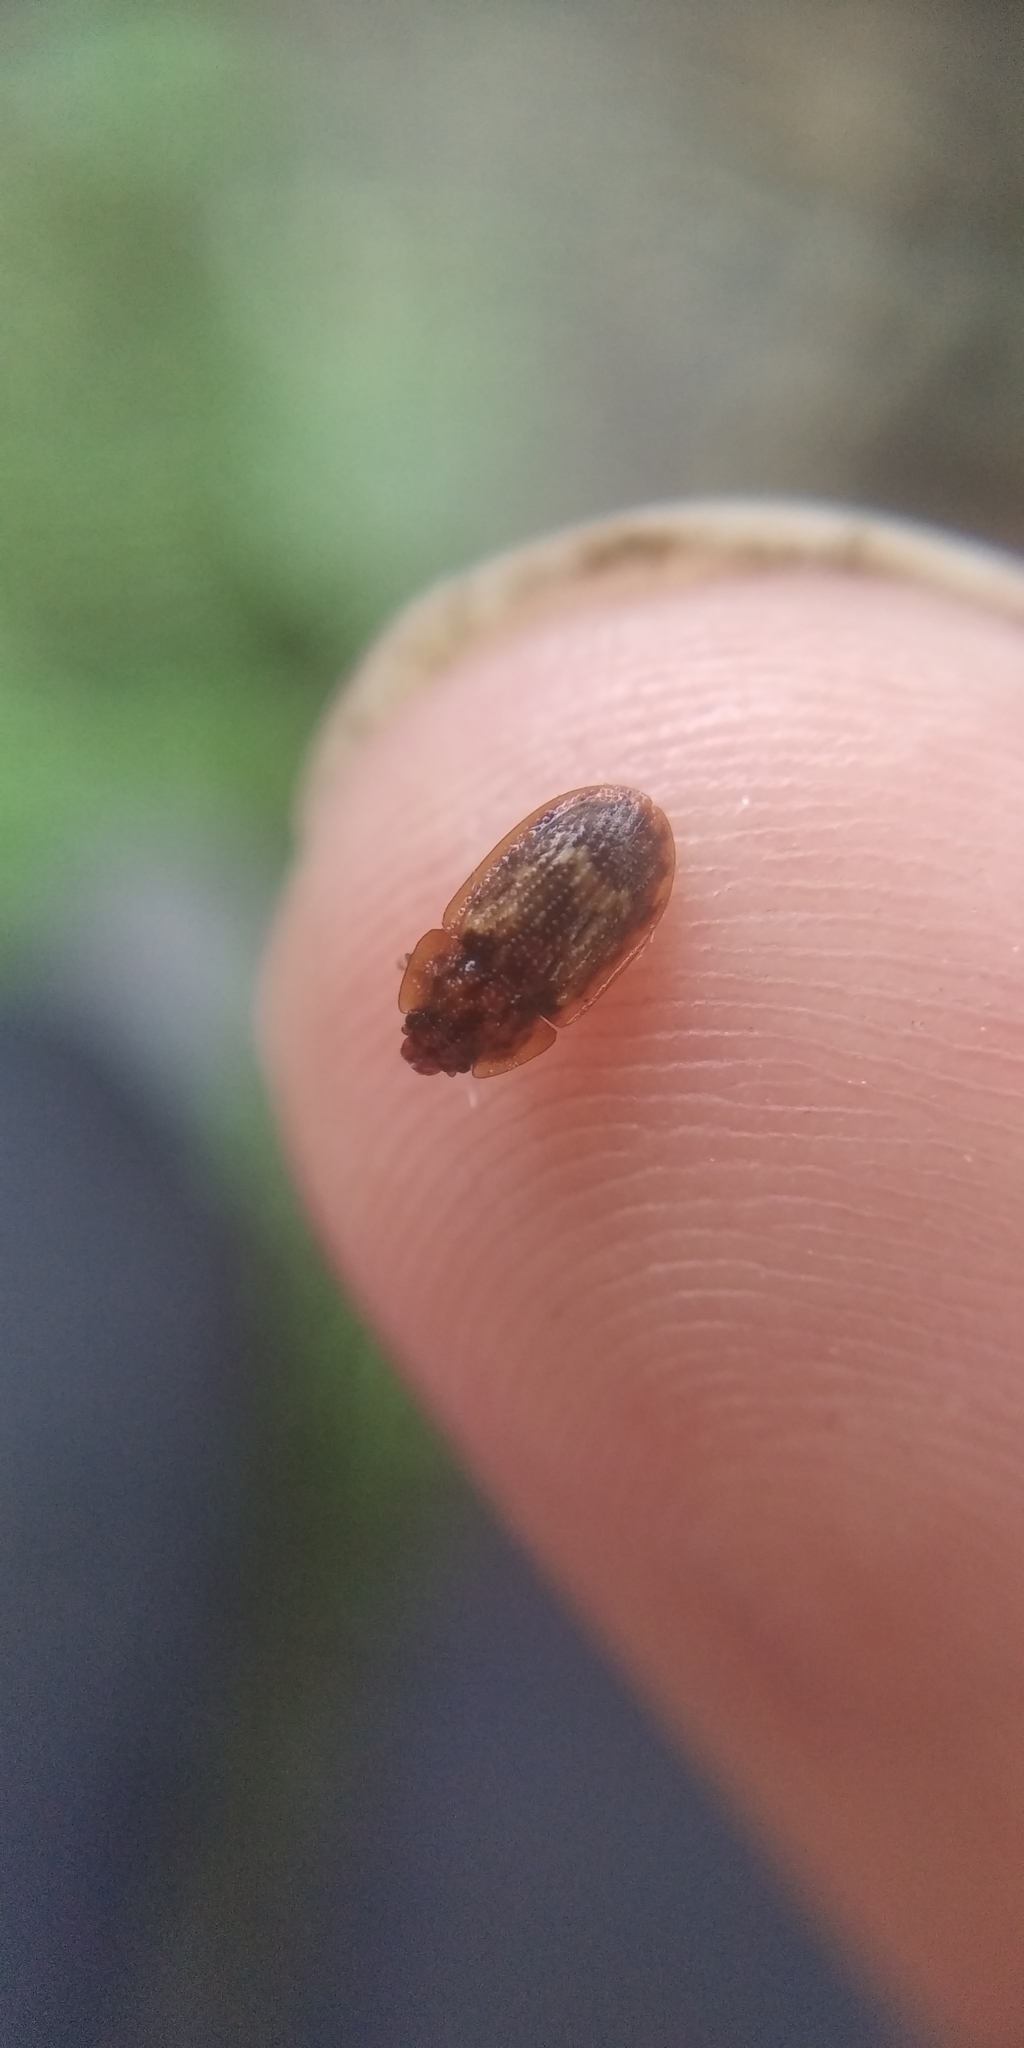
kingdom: Animalia
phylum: Arthropoda
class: Insecta
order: Coleoptera
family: Nitidulidae
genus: Soronia
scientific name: Soronia grisea
